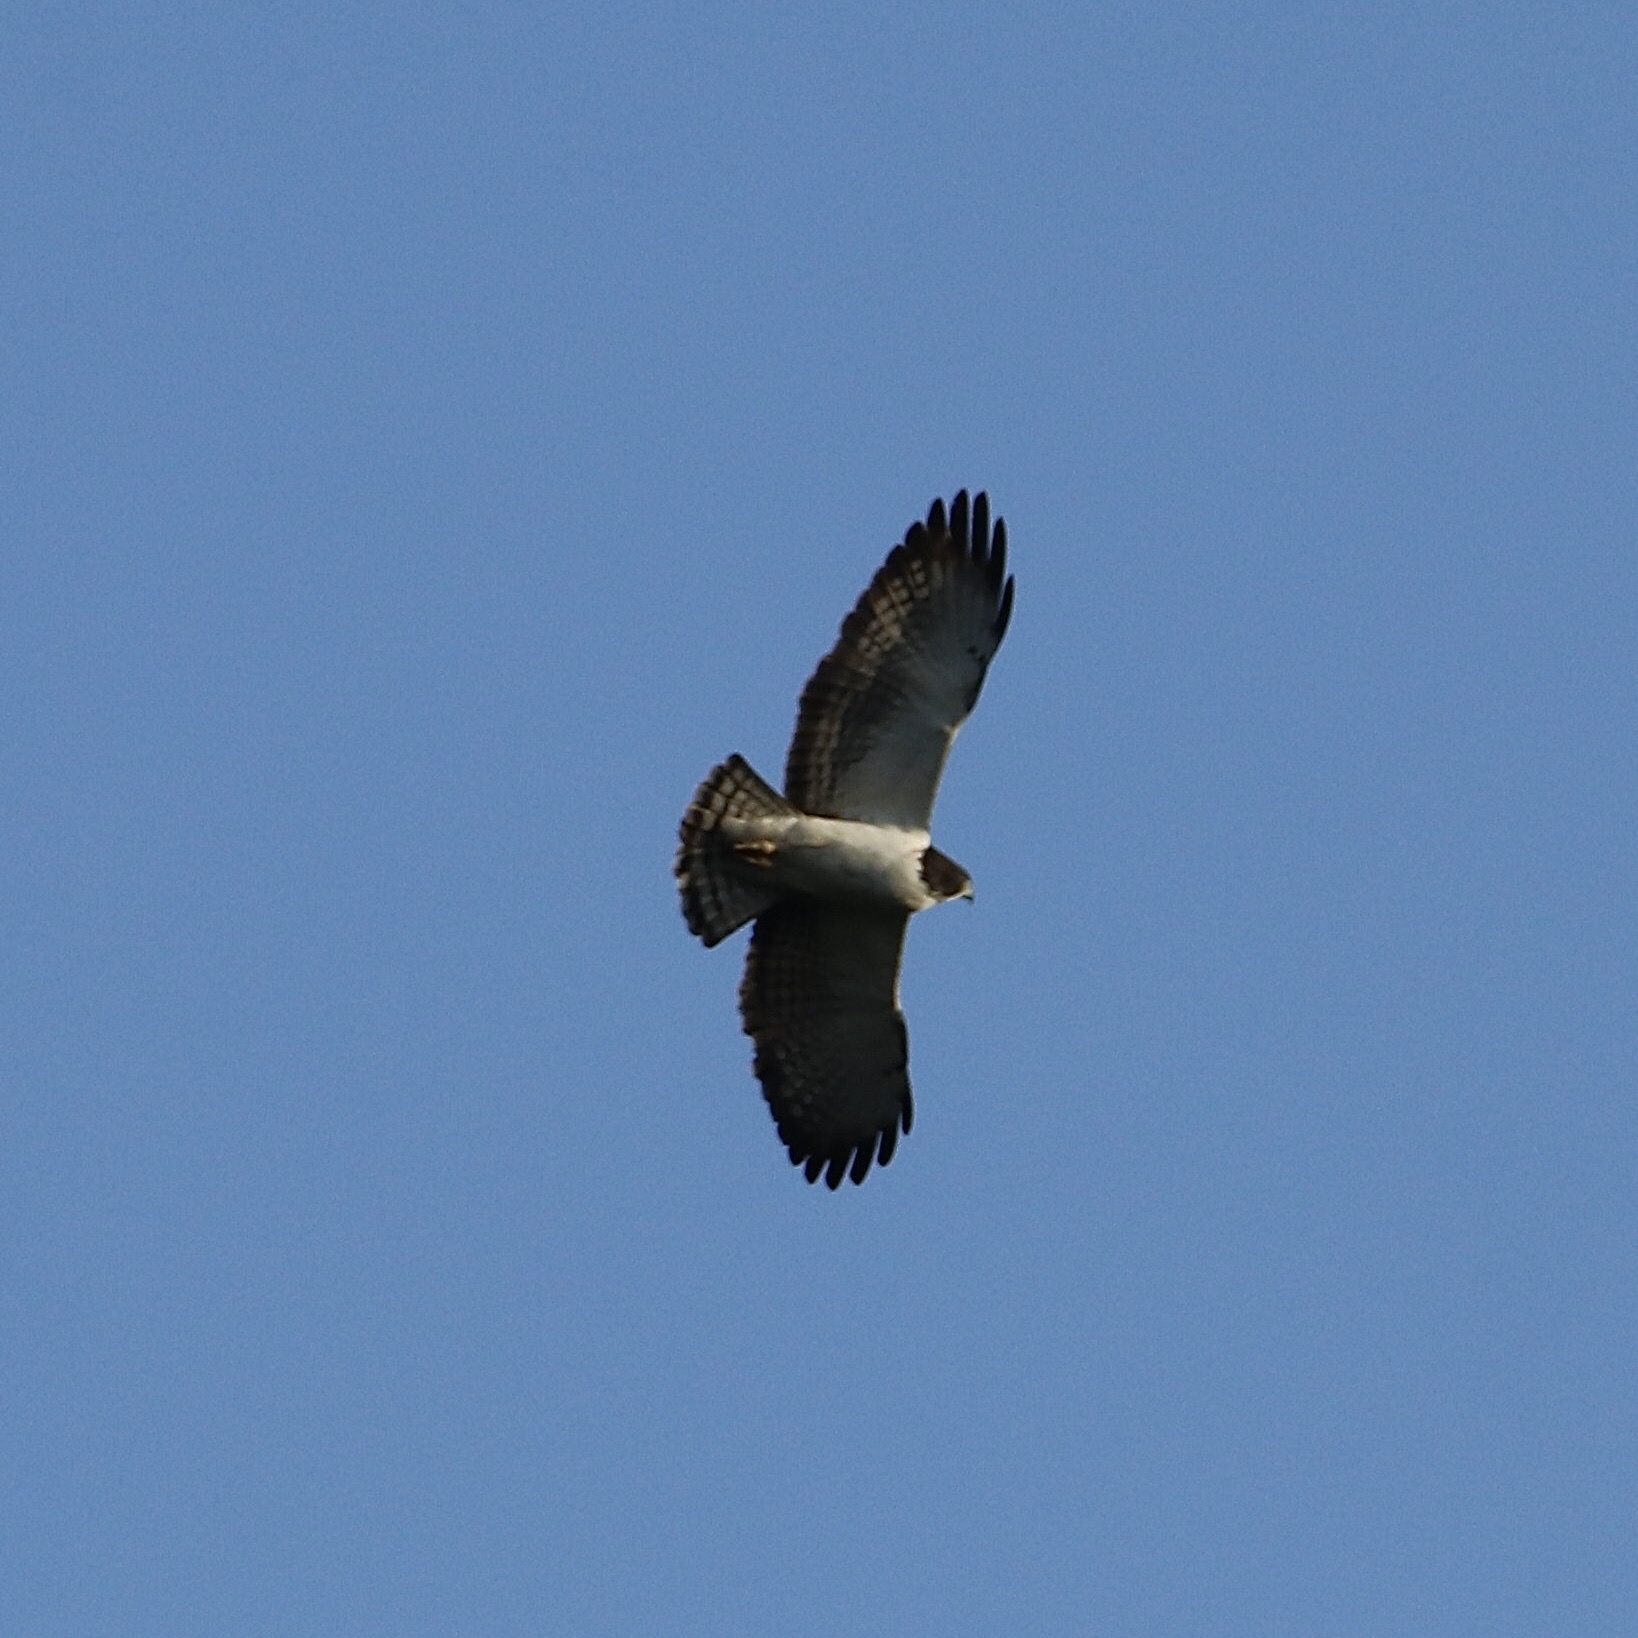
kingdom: Animalia
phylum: Chordata
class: Aves
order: Accipitriformes
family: Accipitridae
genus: Buteo
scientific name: Buteo brachyurus
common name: Short-tailed hawk
